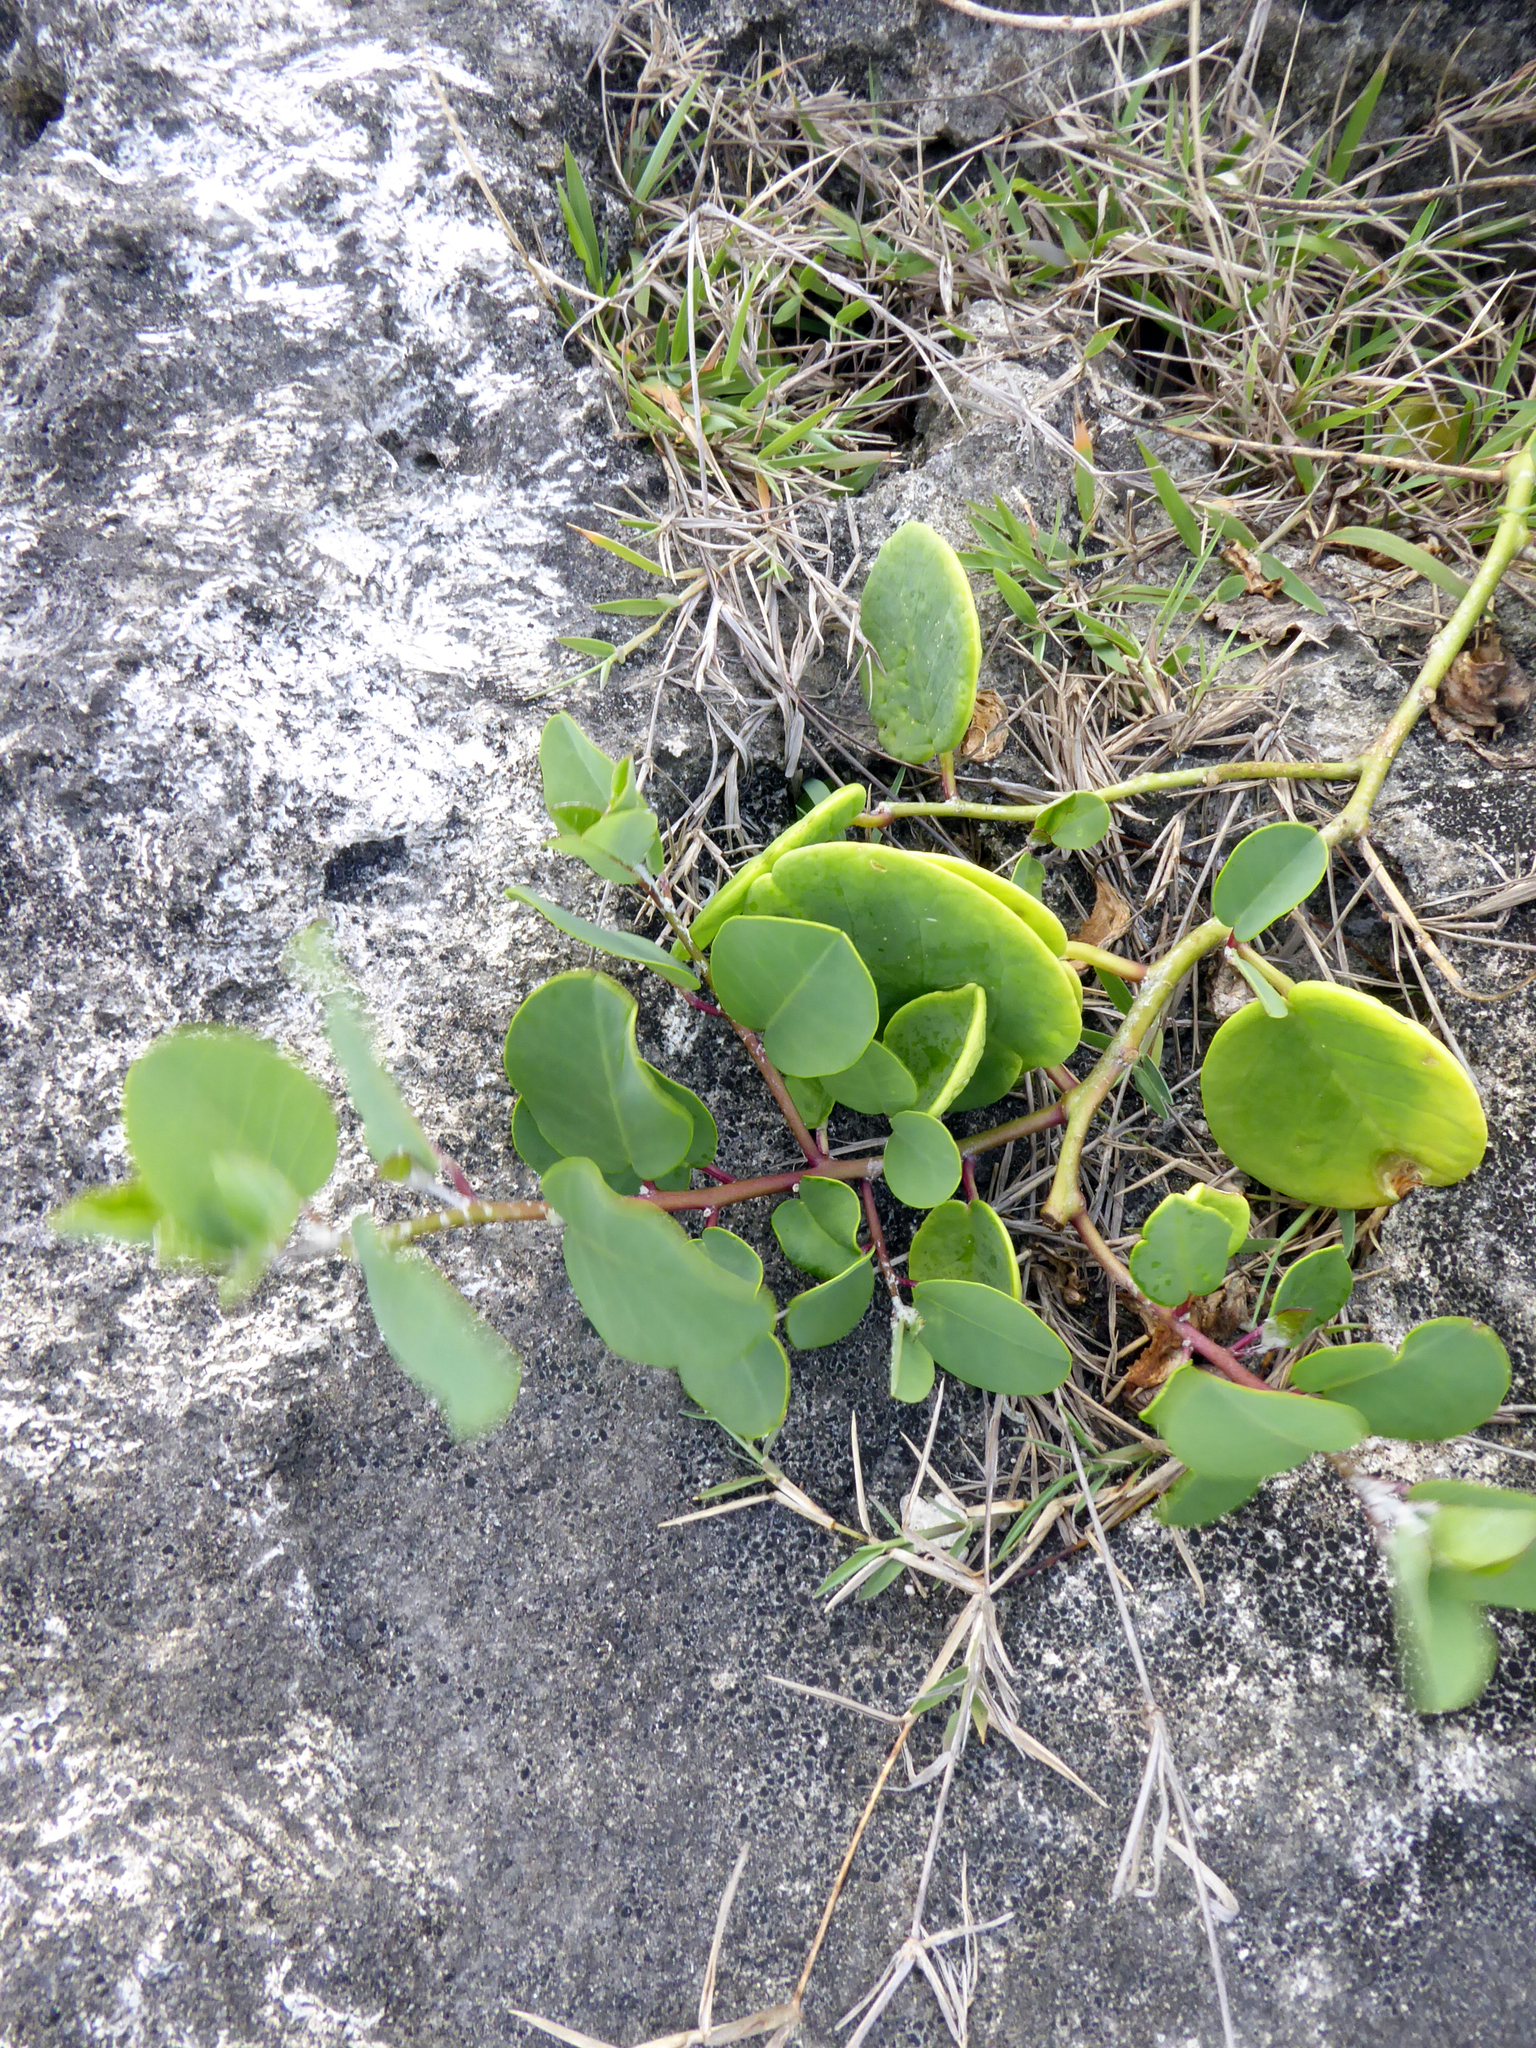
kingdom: Plantae
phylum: Tracheophyta
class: Magnoliopsida
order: Brassicales
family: Capparaceae
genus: Capparis
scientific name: Capparis spinosa
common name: Caper
